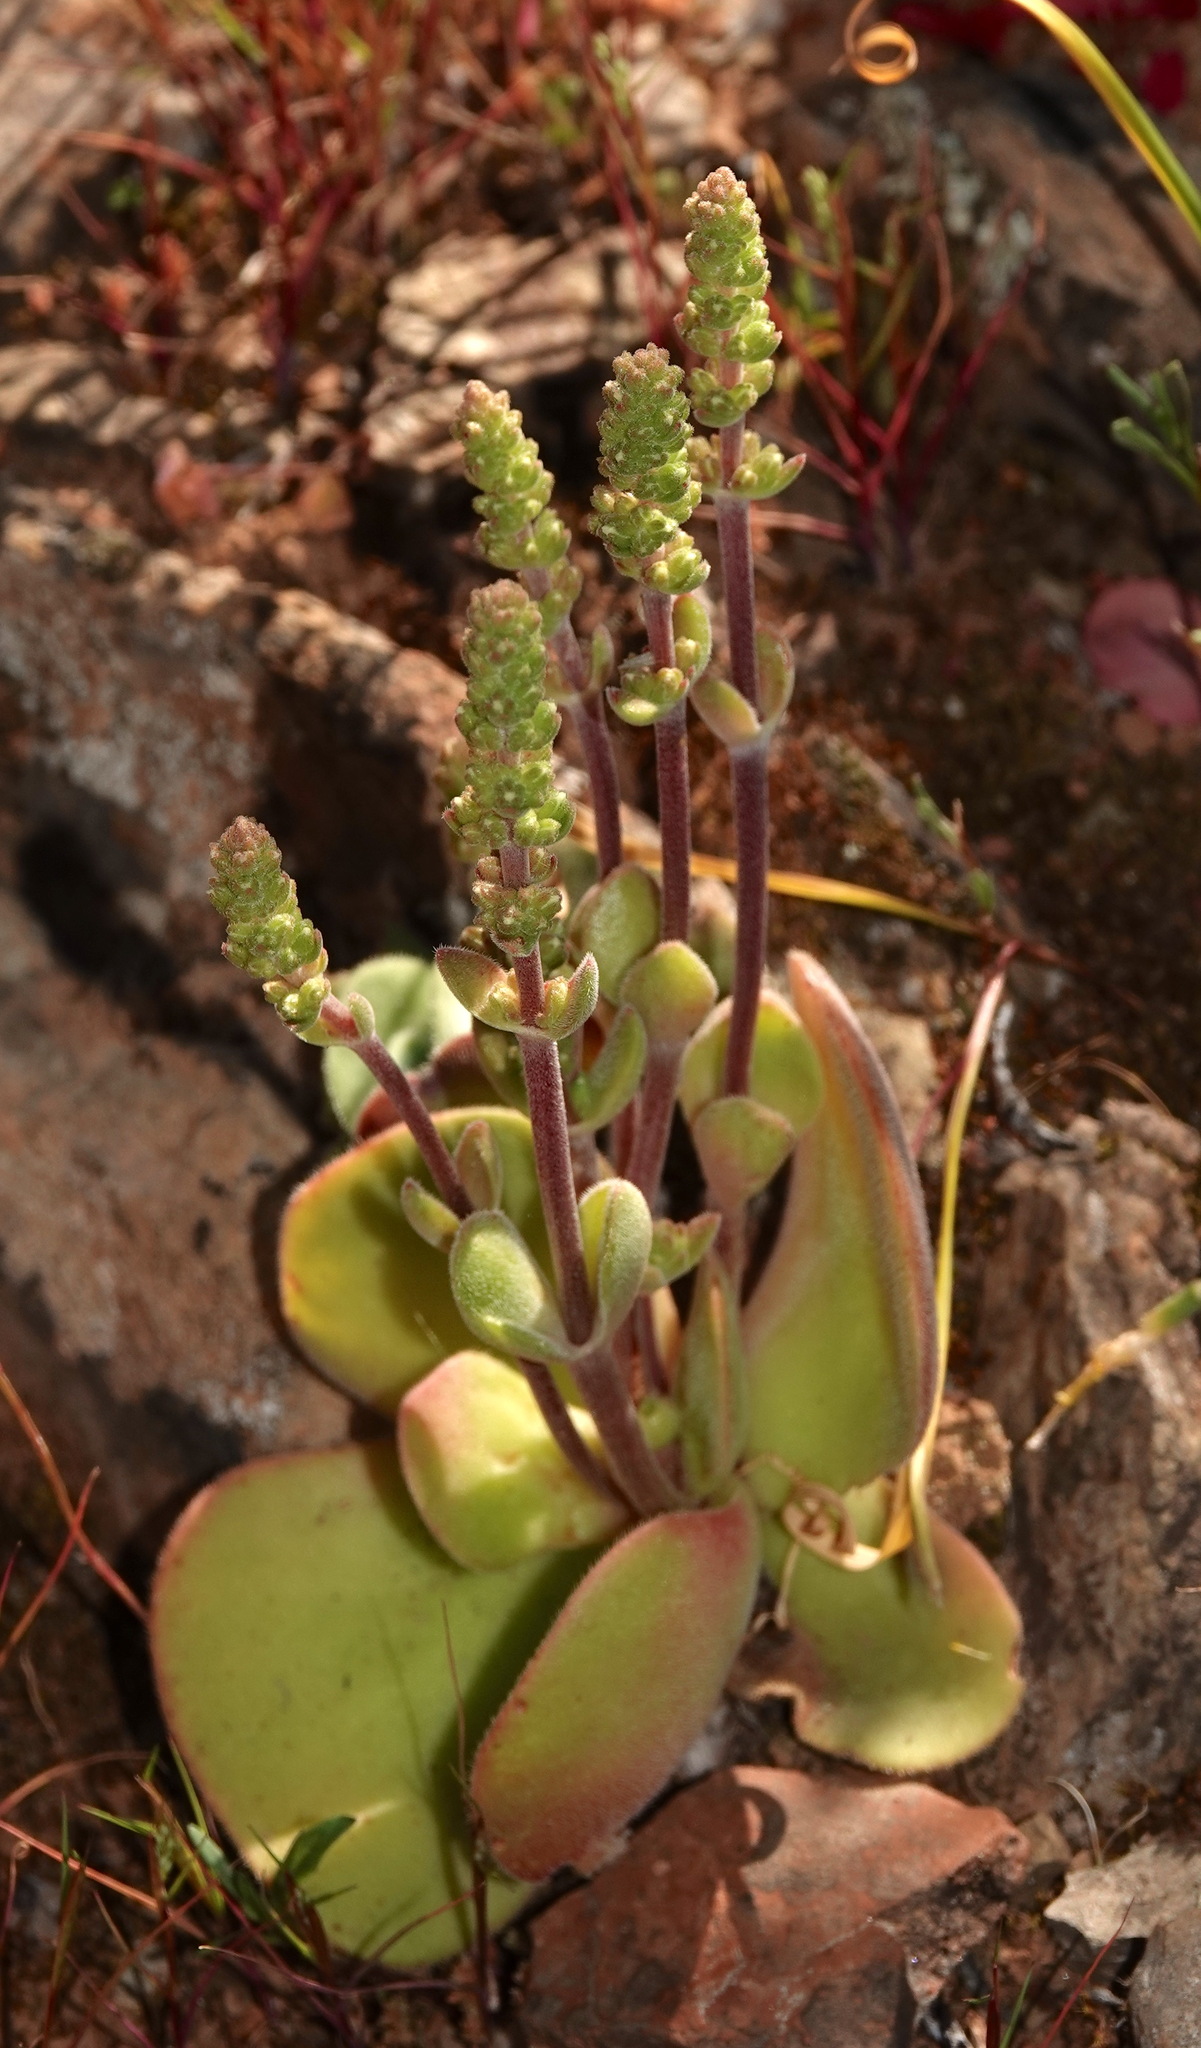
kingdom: Plantae
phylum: Tracheophyta
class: Magnoliopsida
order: Saxifragales
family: Crassulaceae
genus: Crassula
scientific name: Crassula tomentosa
